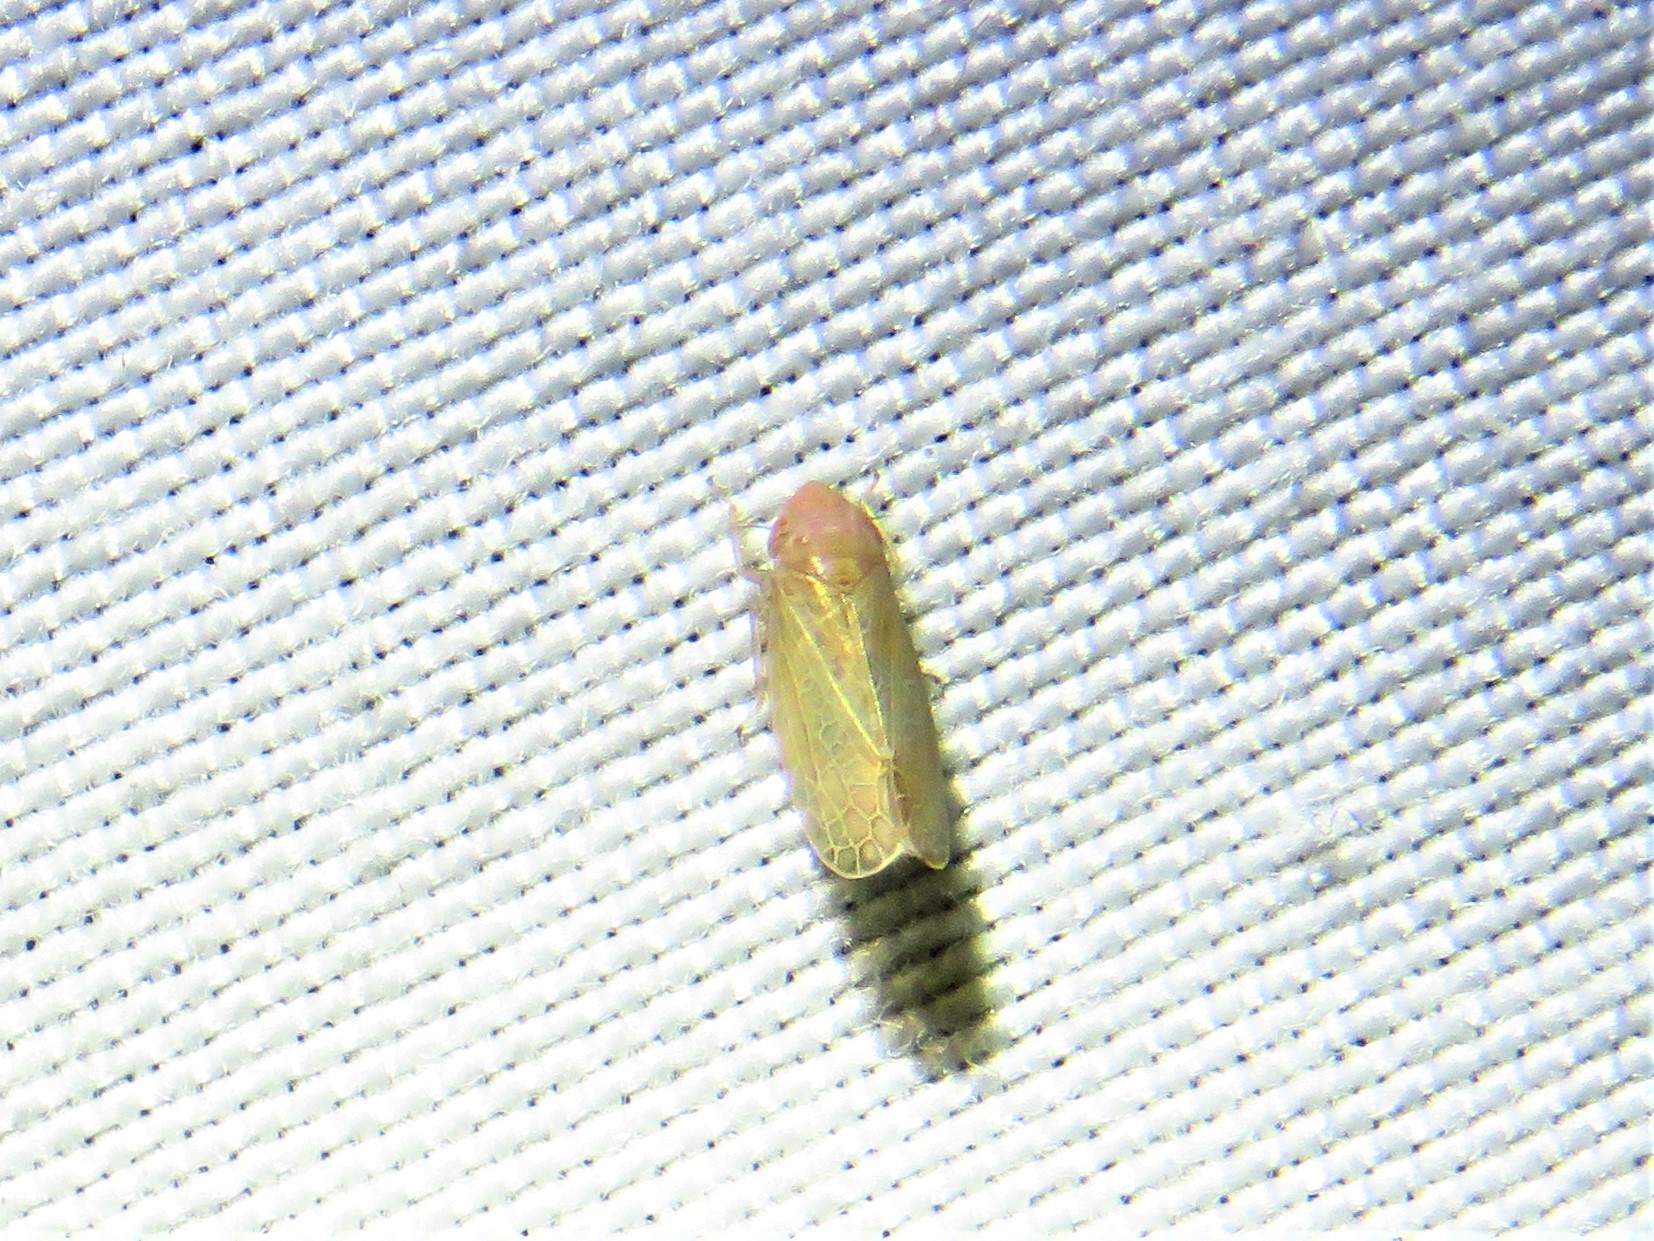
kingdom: Animalia
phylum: Arthropoda
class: Insecta
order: Hemiptera
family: Cicadellidae
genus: Polyamia
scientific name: Polyamia yavapai
